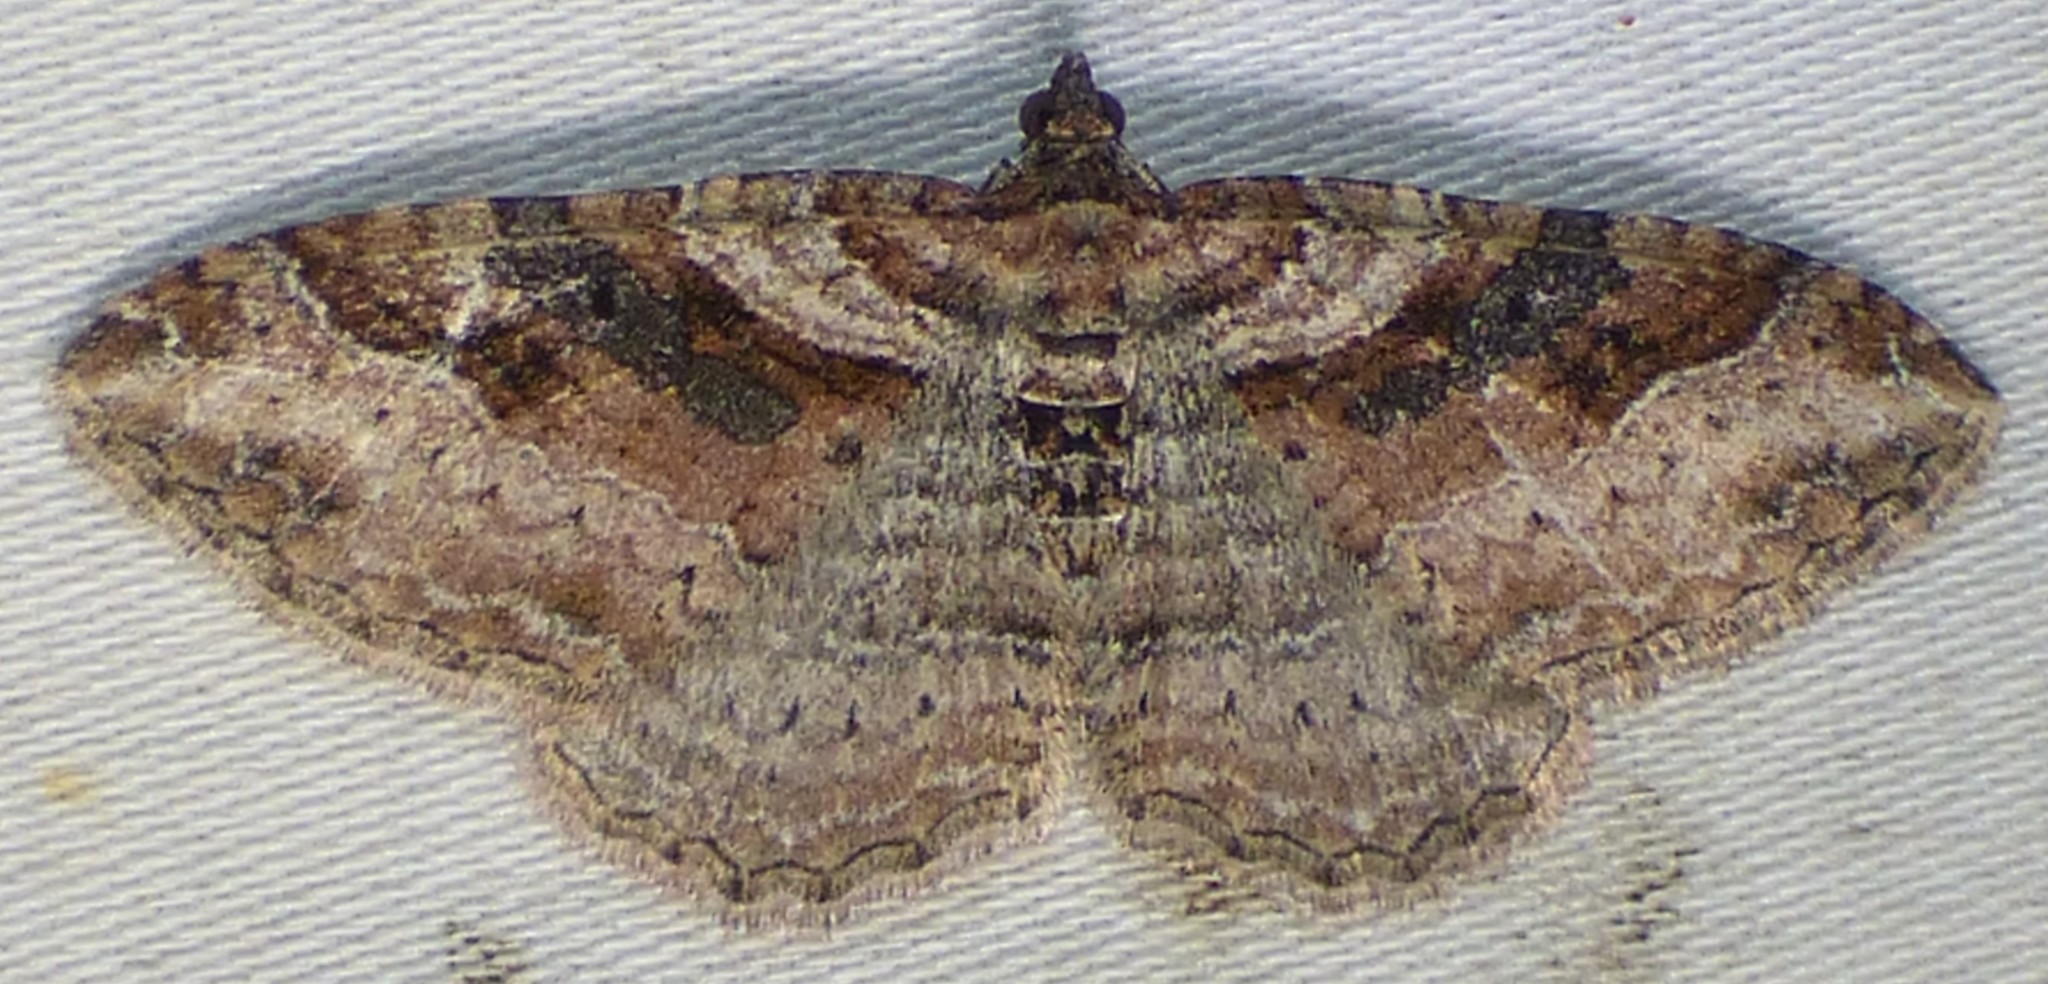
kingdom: Animalia
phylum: Arthropoda
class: Insecta
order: Lepidoptera
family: Geometridae
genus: Costaconvexa
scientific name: Costaconvexa centrostrigaria
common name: Bent-line carpet
